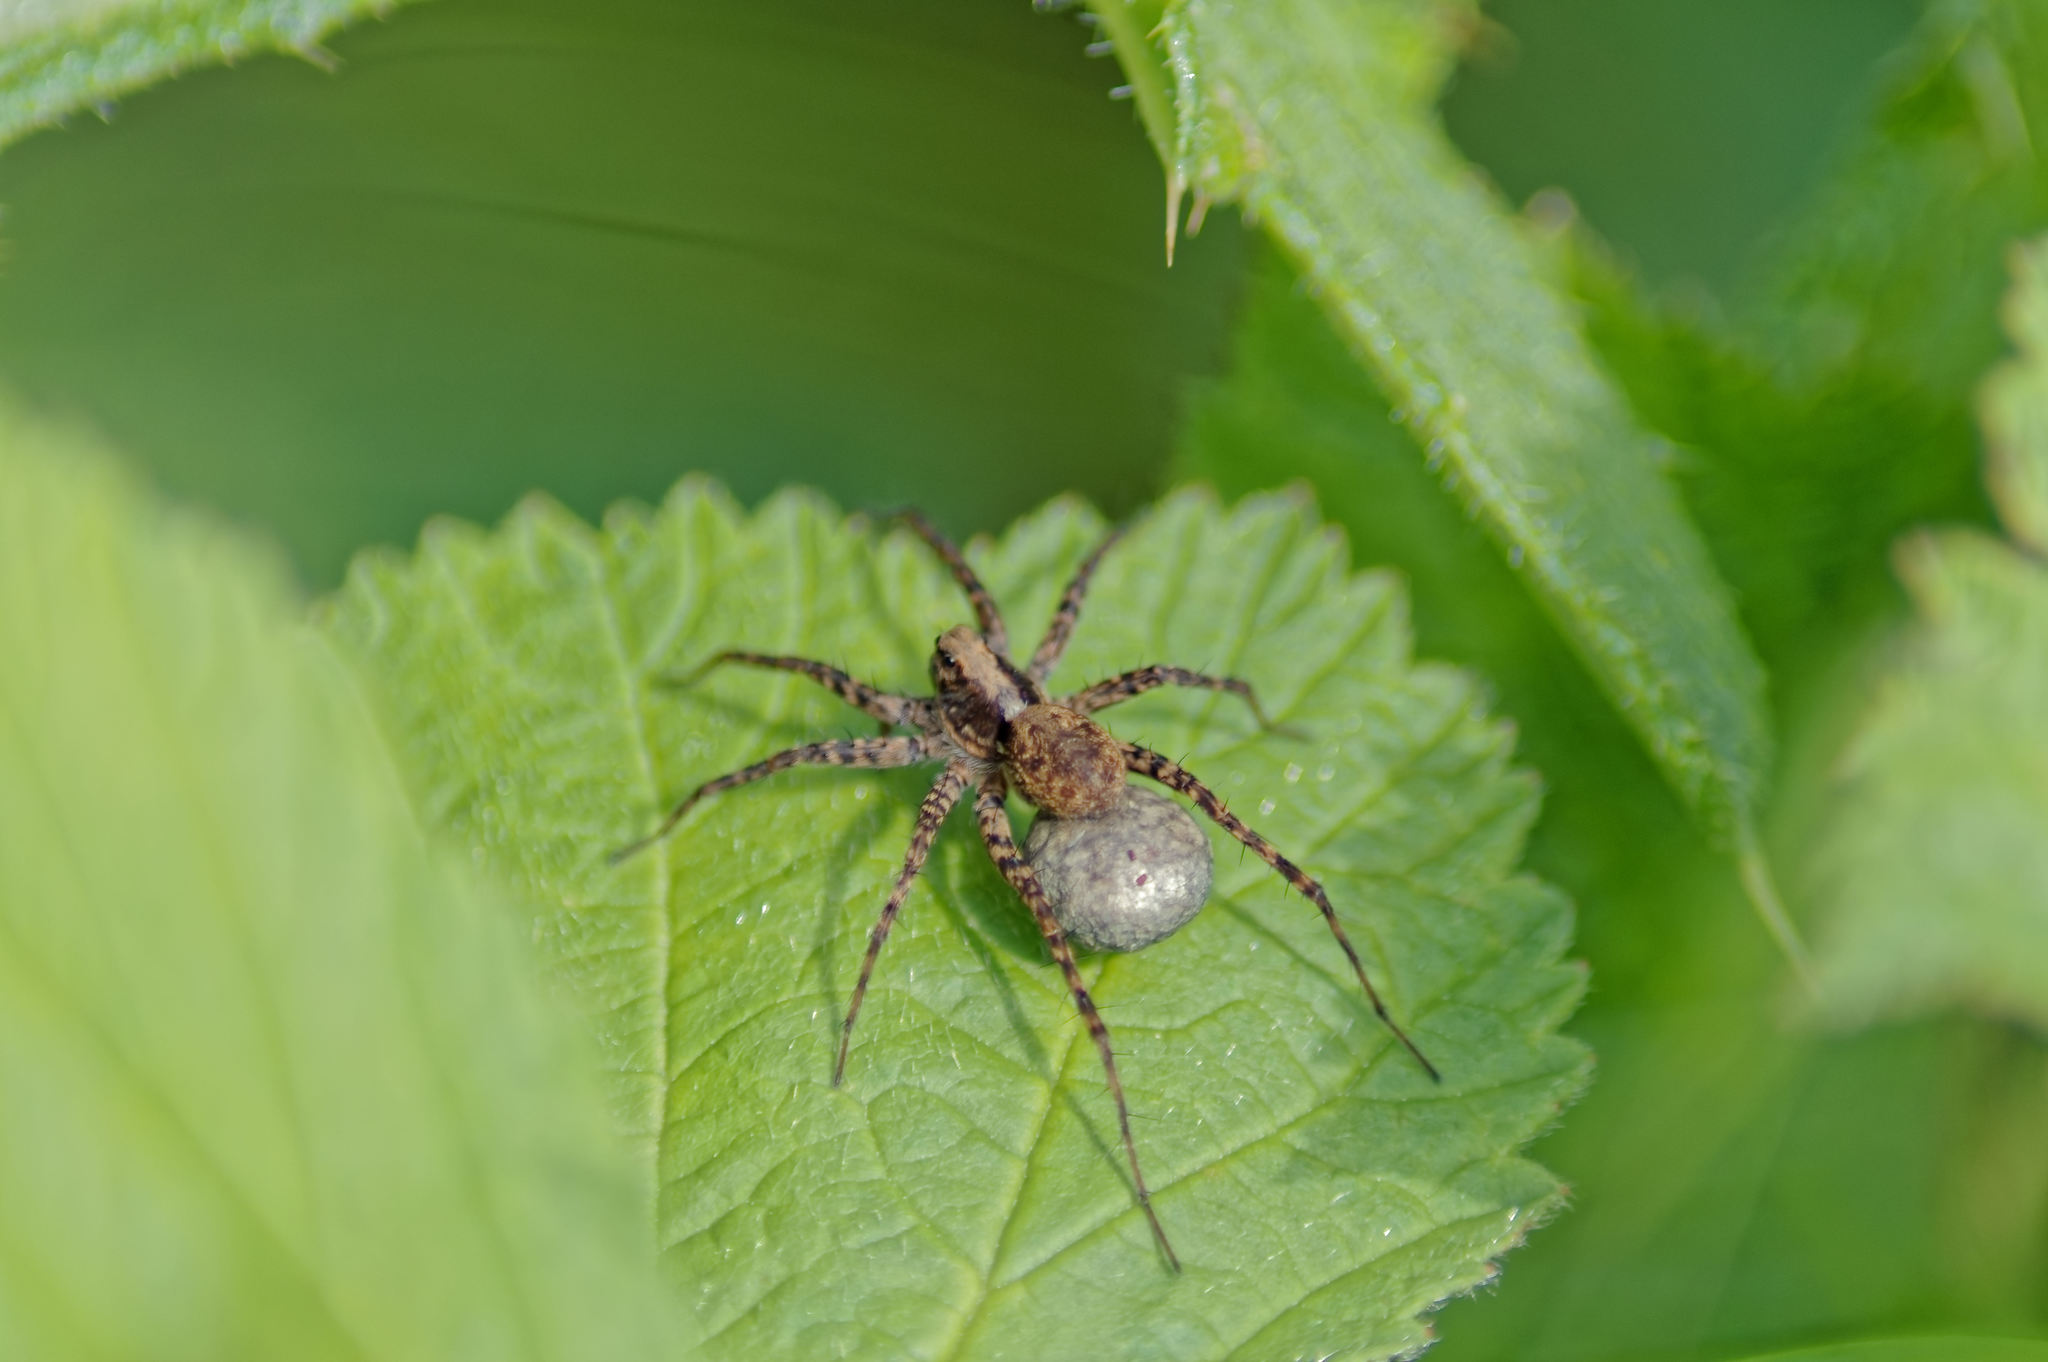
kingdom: Animalia
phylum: Arthropoda
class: Arachnida
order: Araneae
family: Lycosidae
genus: Pardosa
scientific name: Pardosa
